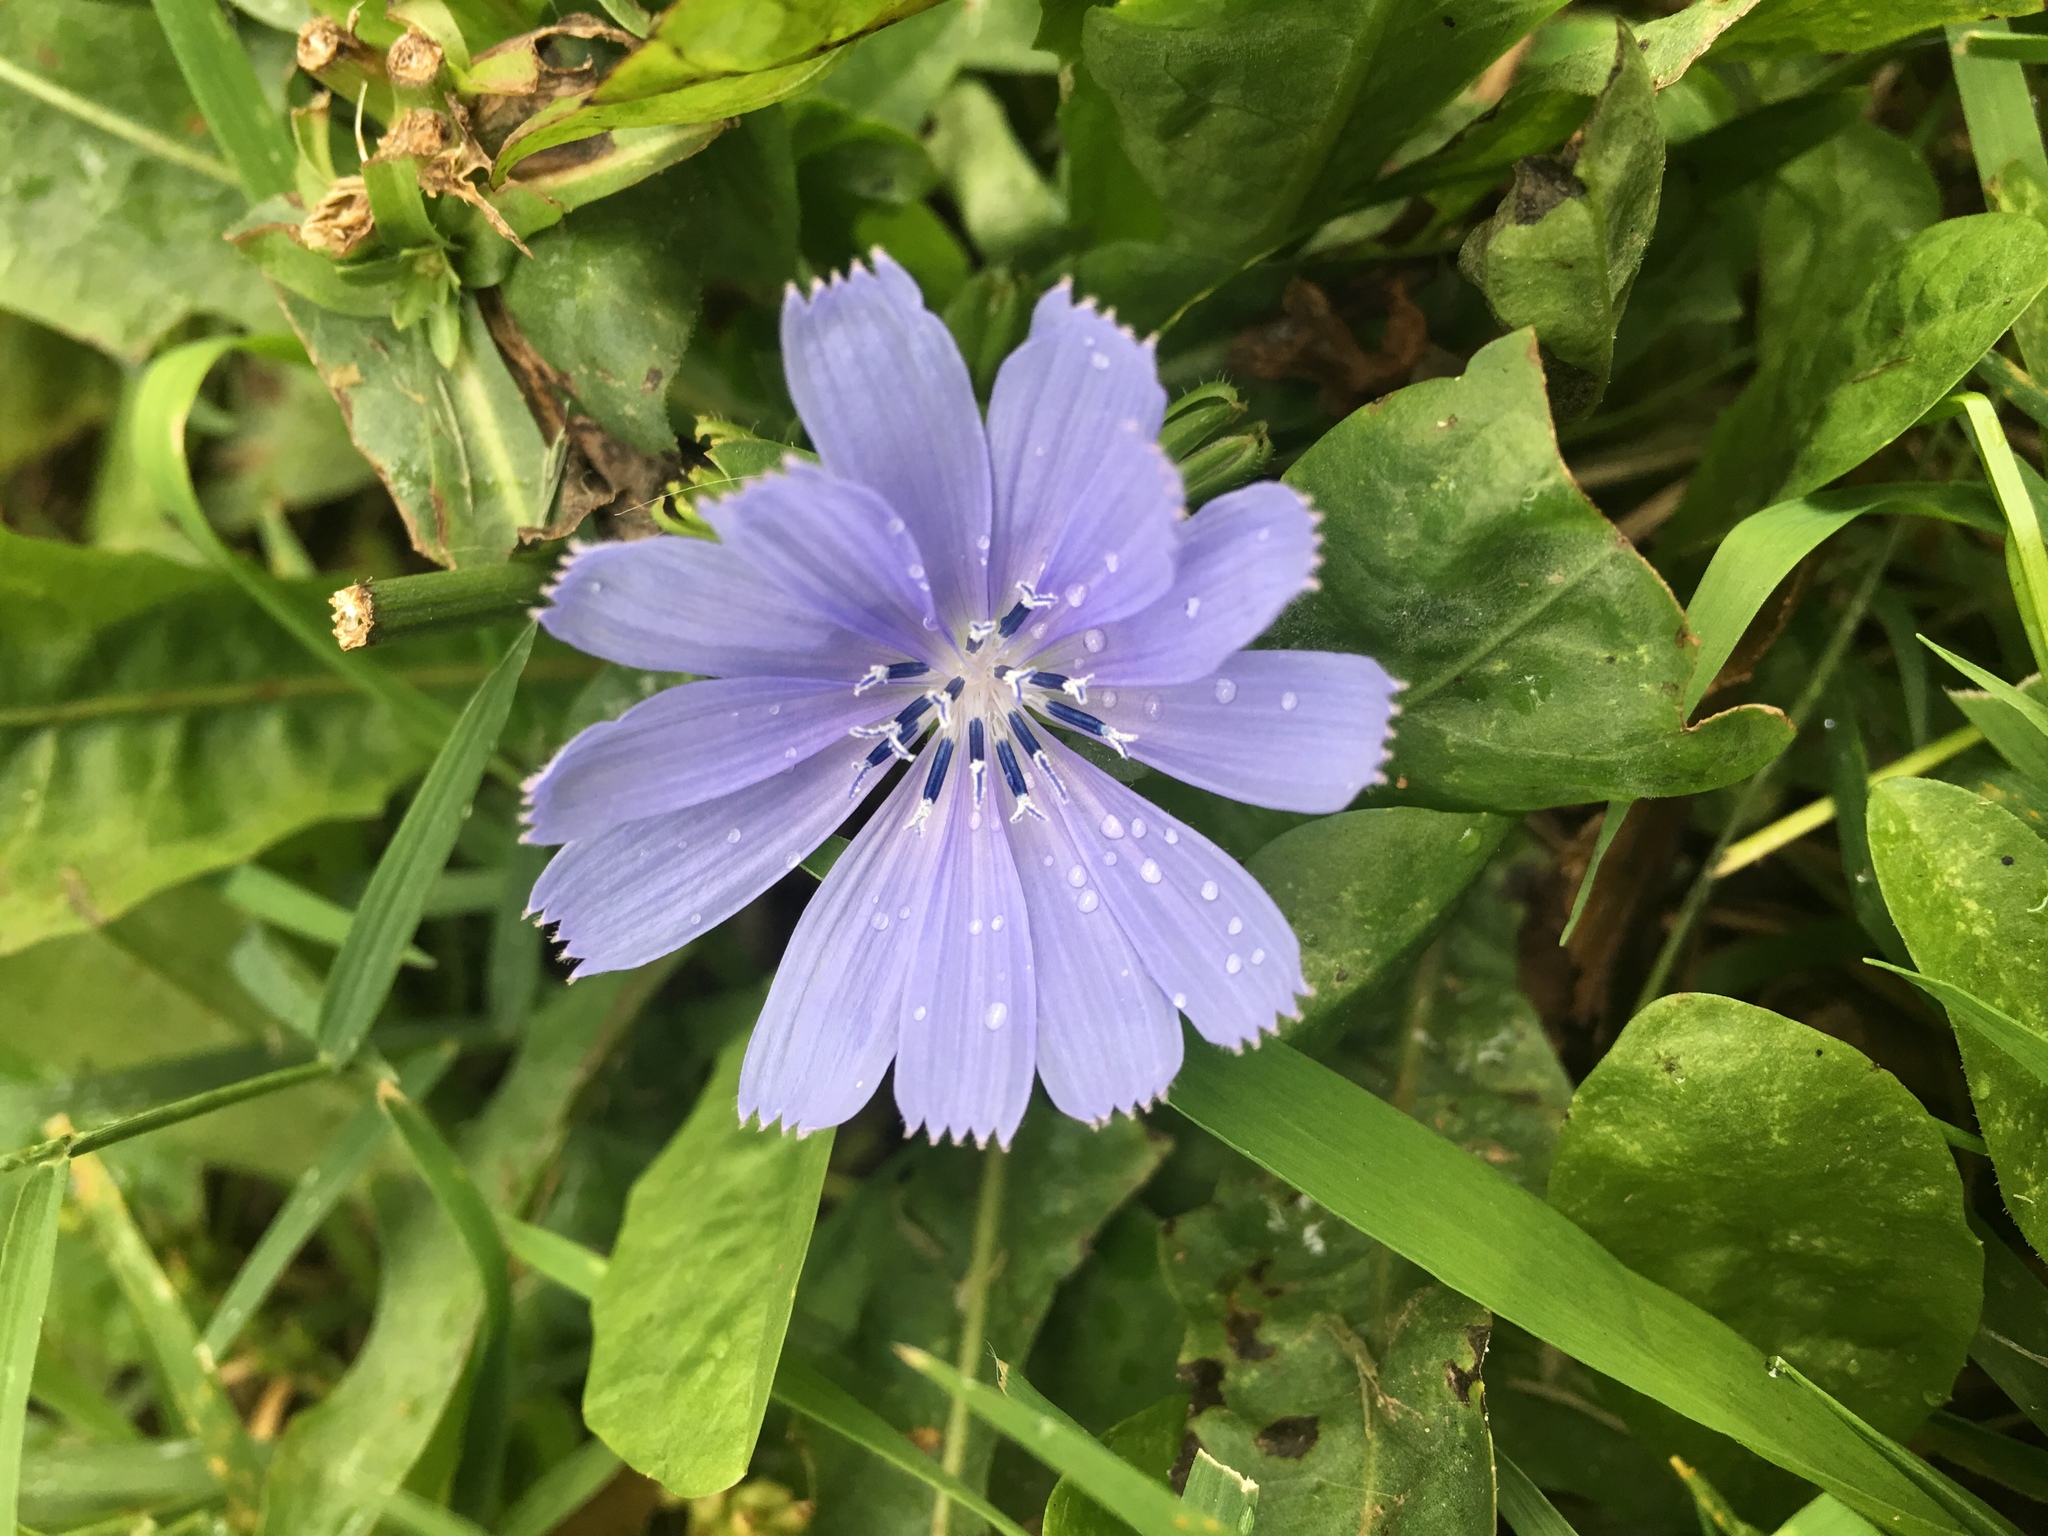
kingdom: Plantae
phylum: Tracheophyta
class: Magnoliopsida
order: Asterales
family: Asteraceae
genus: Cichorium
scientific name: Cichorium intybus
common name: Chicory
